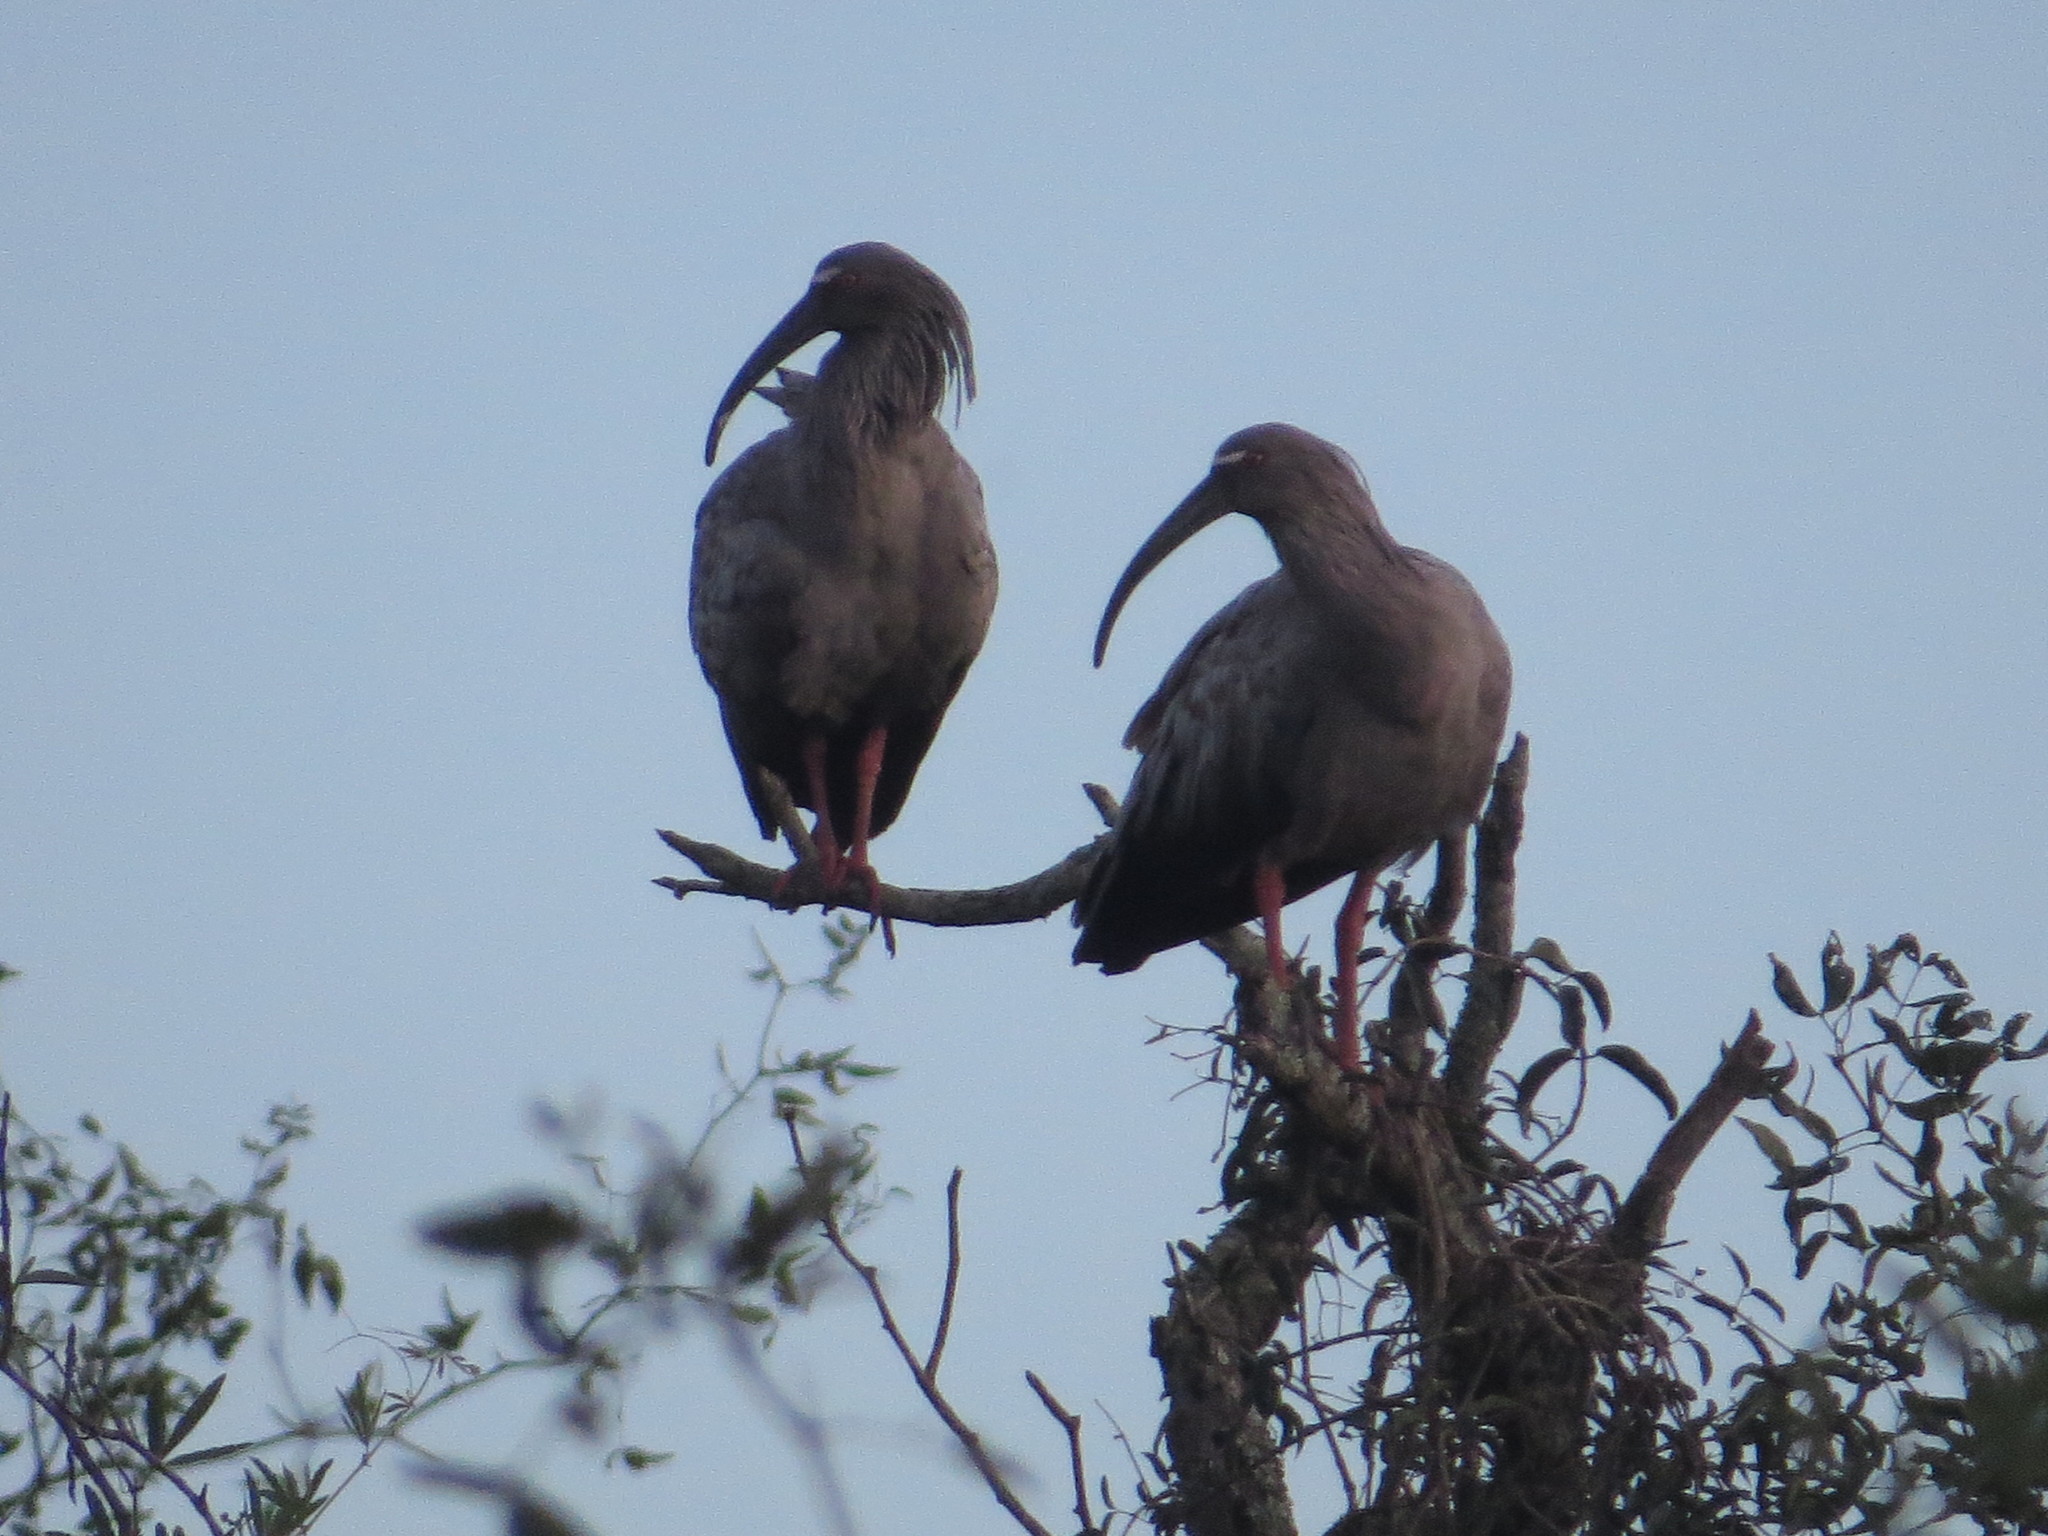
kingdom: Animalia
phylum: Chordata
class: Aves
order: Pelecaniformes
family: Threskiornithidae
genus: Theristicus
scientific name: Theristicus caerulescens
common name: Plumbeous ibis
